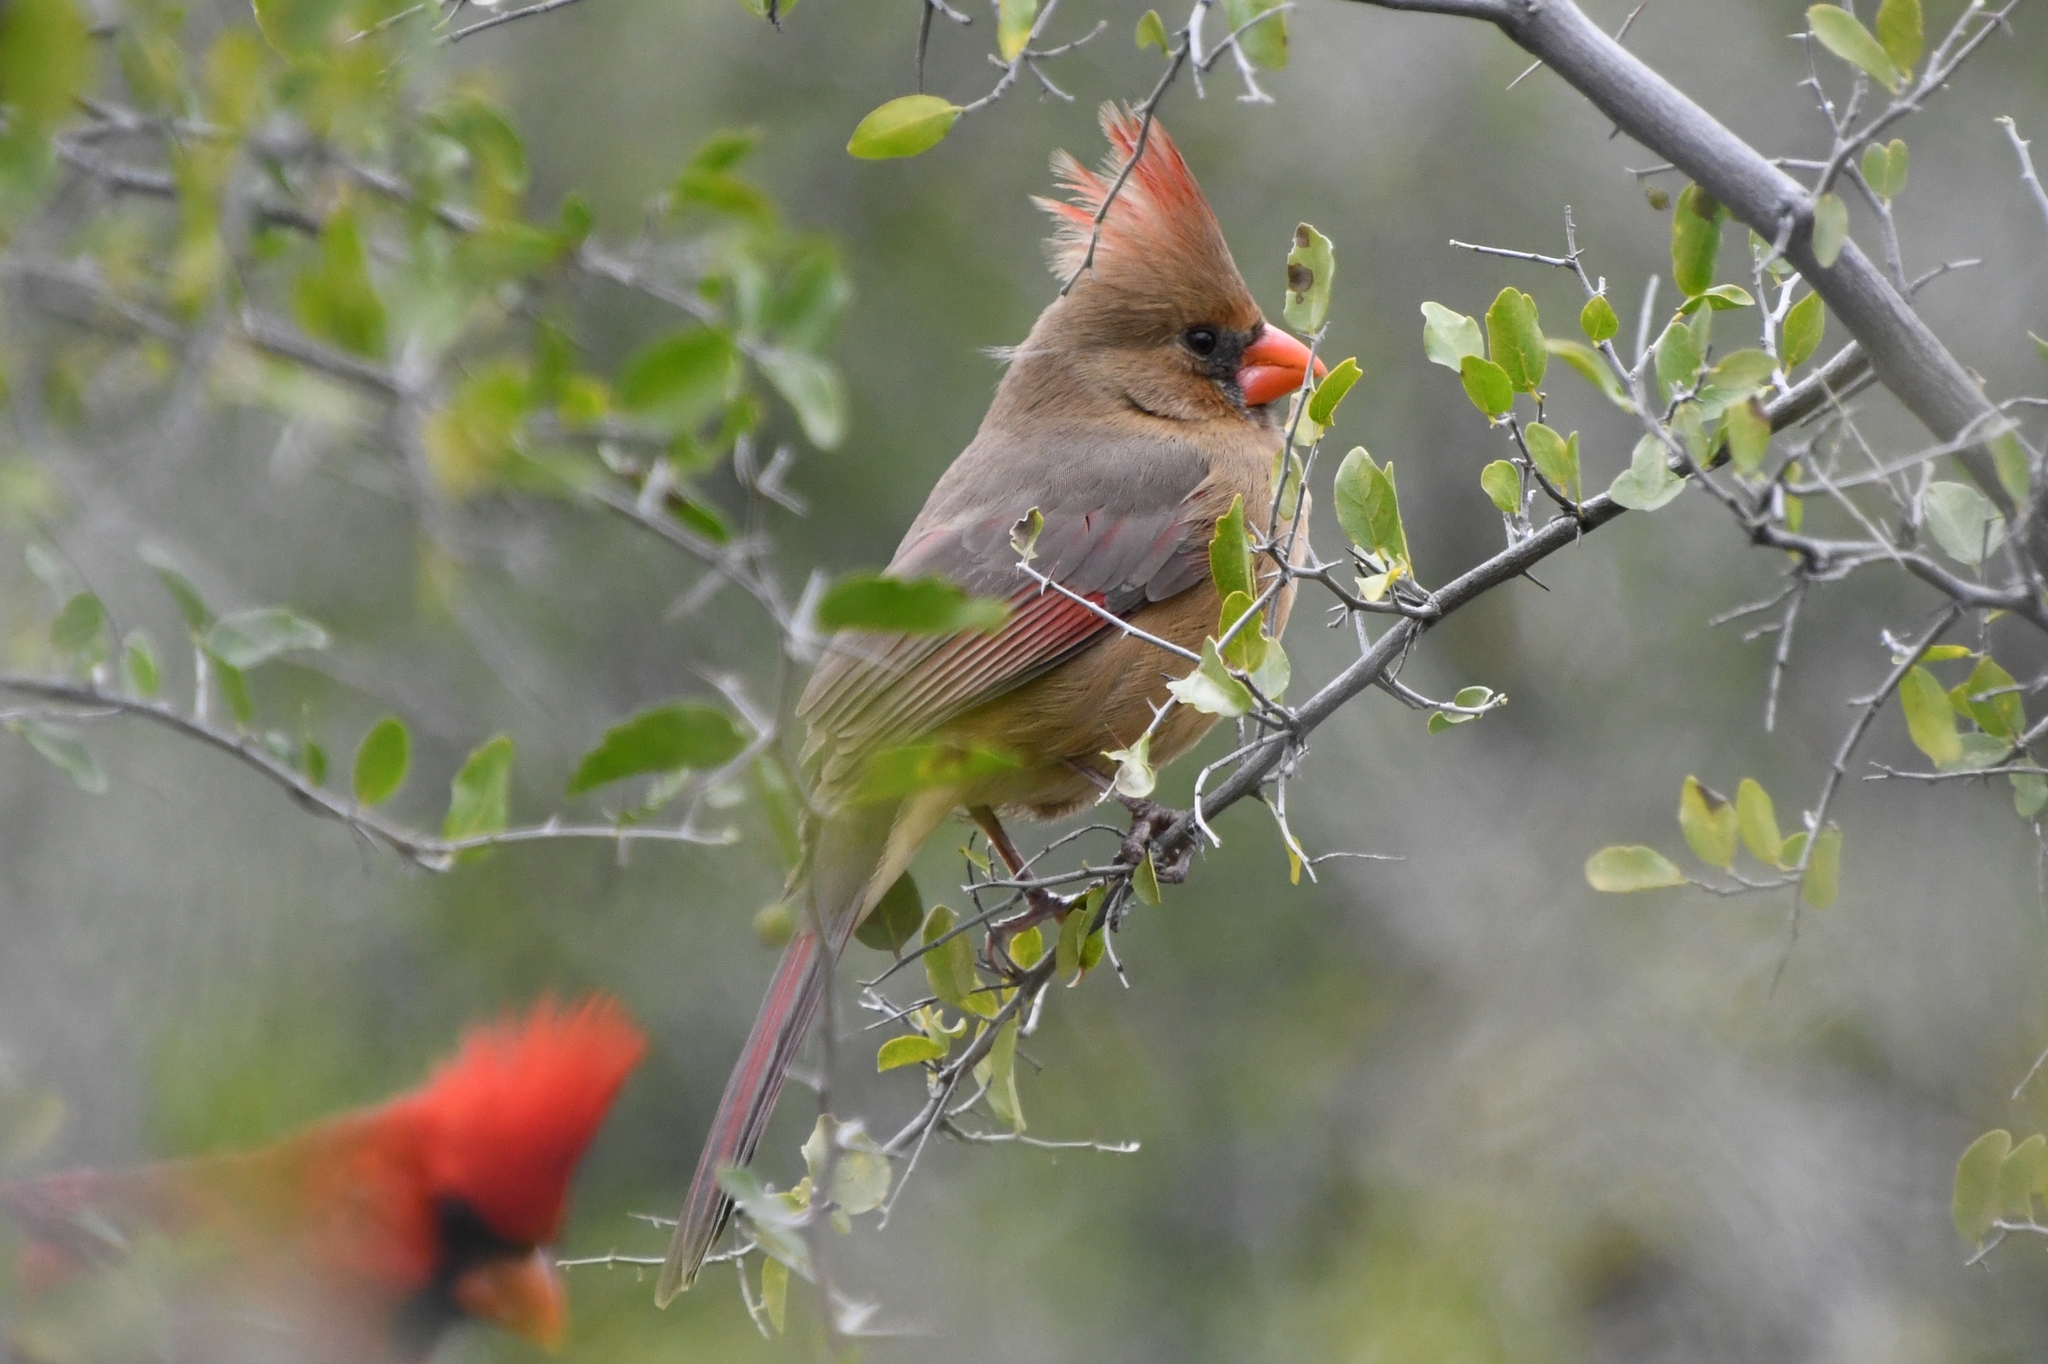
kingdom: Animalia
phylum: Chordata
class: Aves
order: Passeriformes
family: Cardinalidae
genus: Cardinalis
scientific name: Cardinalis cardinalis
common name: Northern cardinal
